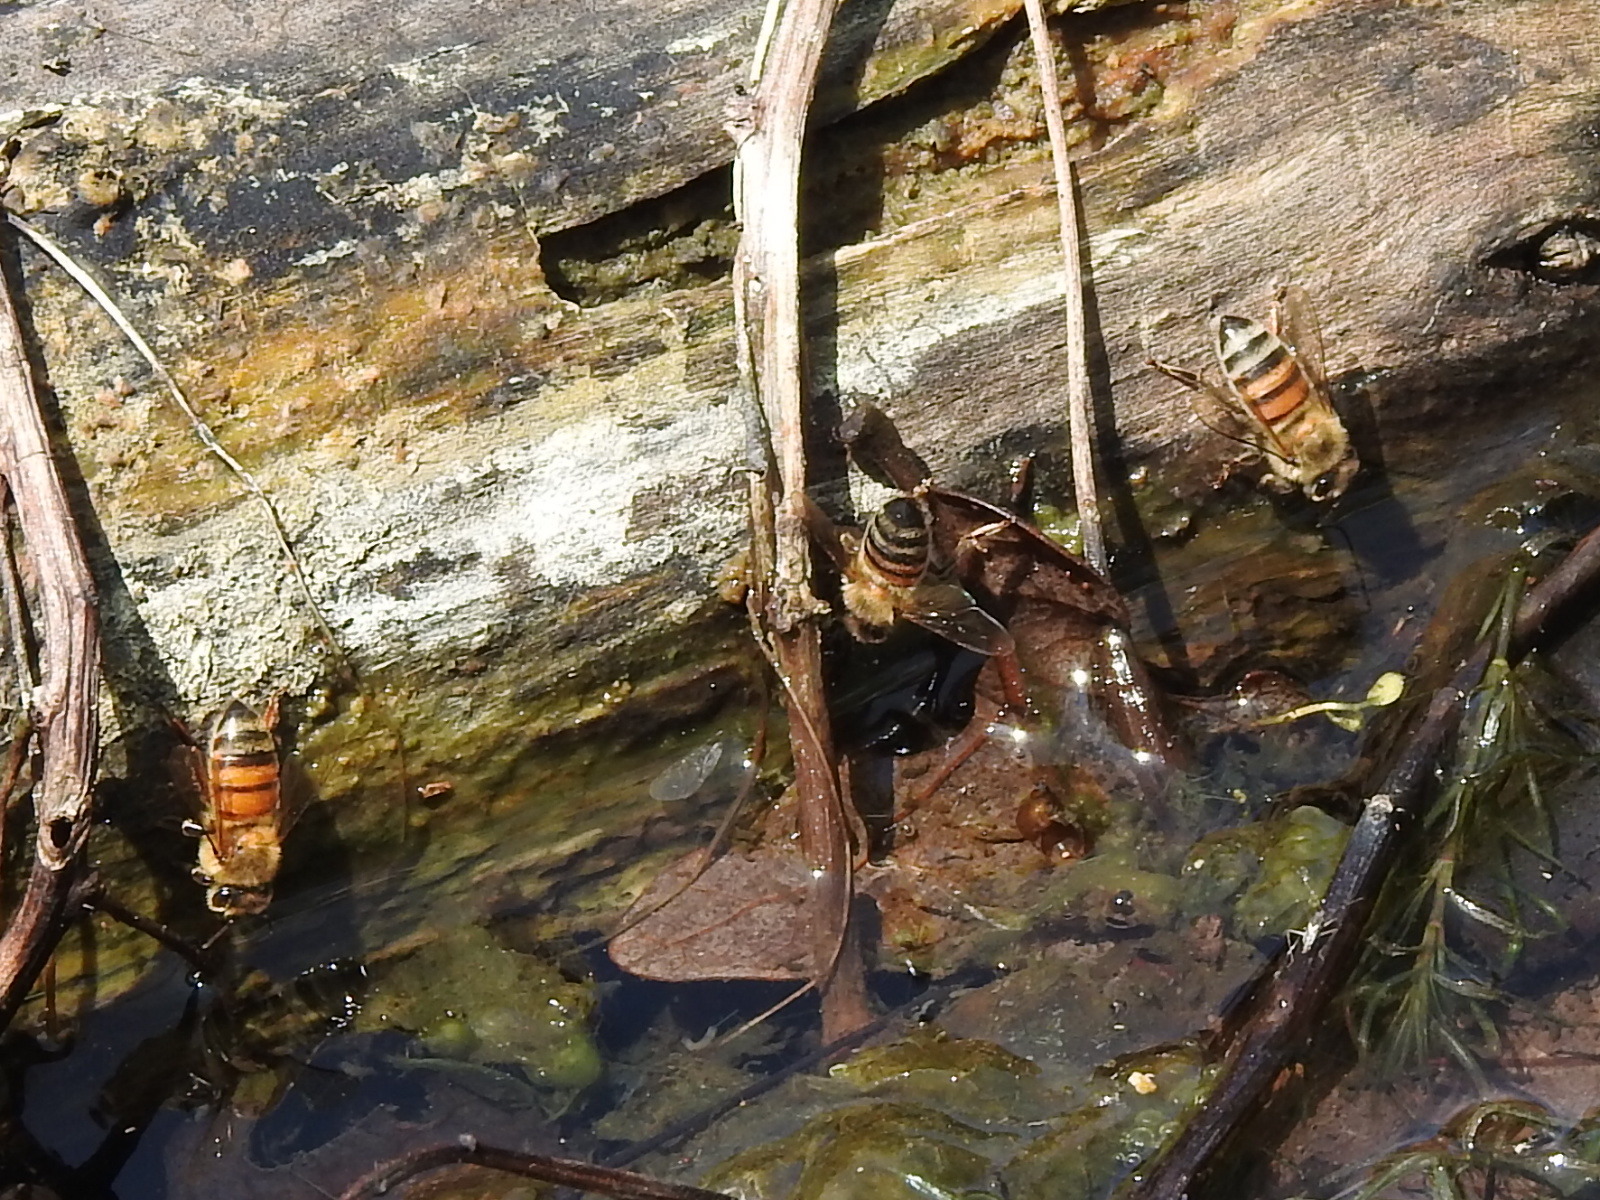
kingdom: Animalia
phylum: Arthropoda
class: Insecta
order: Hymenoptera
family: Apidae
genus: Apis
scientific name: Apis mellifera
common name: Honey bee
